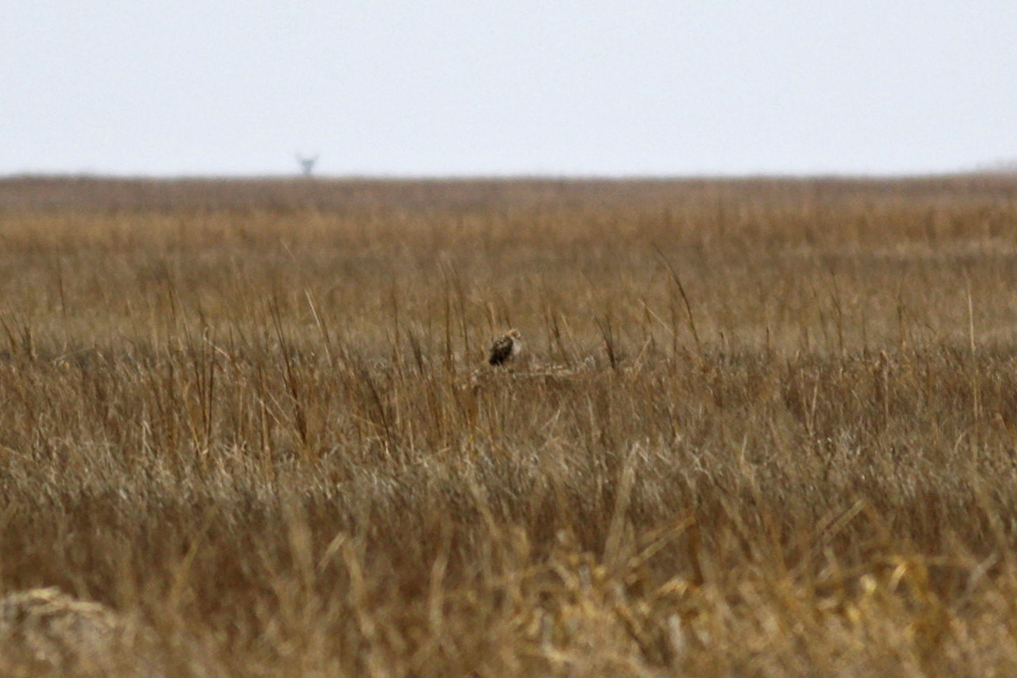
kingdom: Animalia
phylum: Chordata
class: Aves
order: Strigiformes
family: Strigidae
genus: Asio
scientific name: Asio flammeus
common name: Short-eared owl
